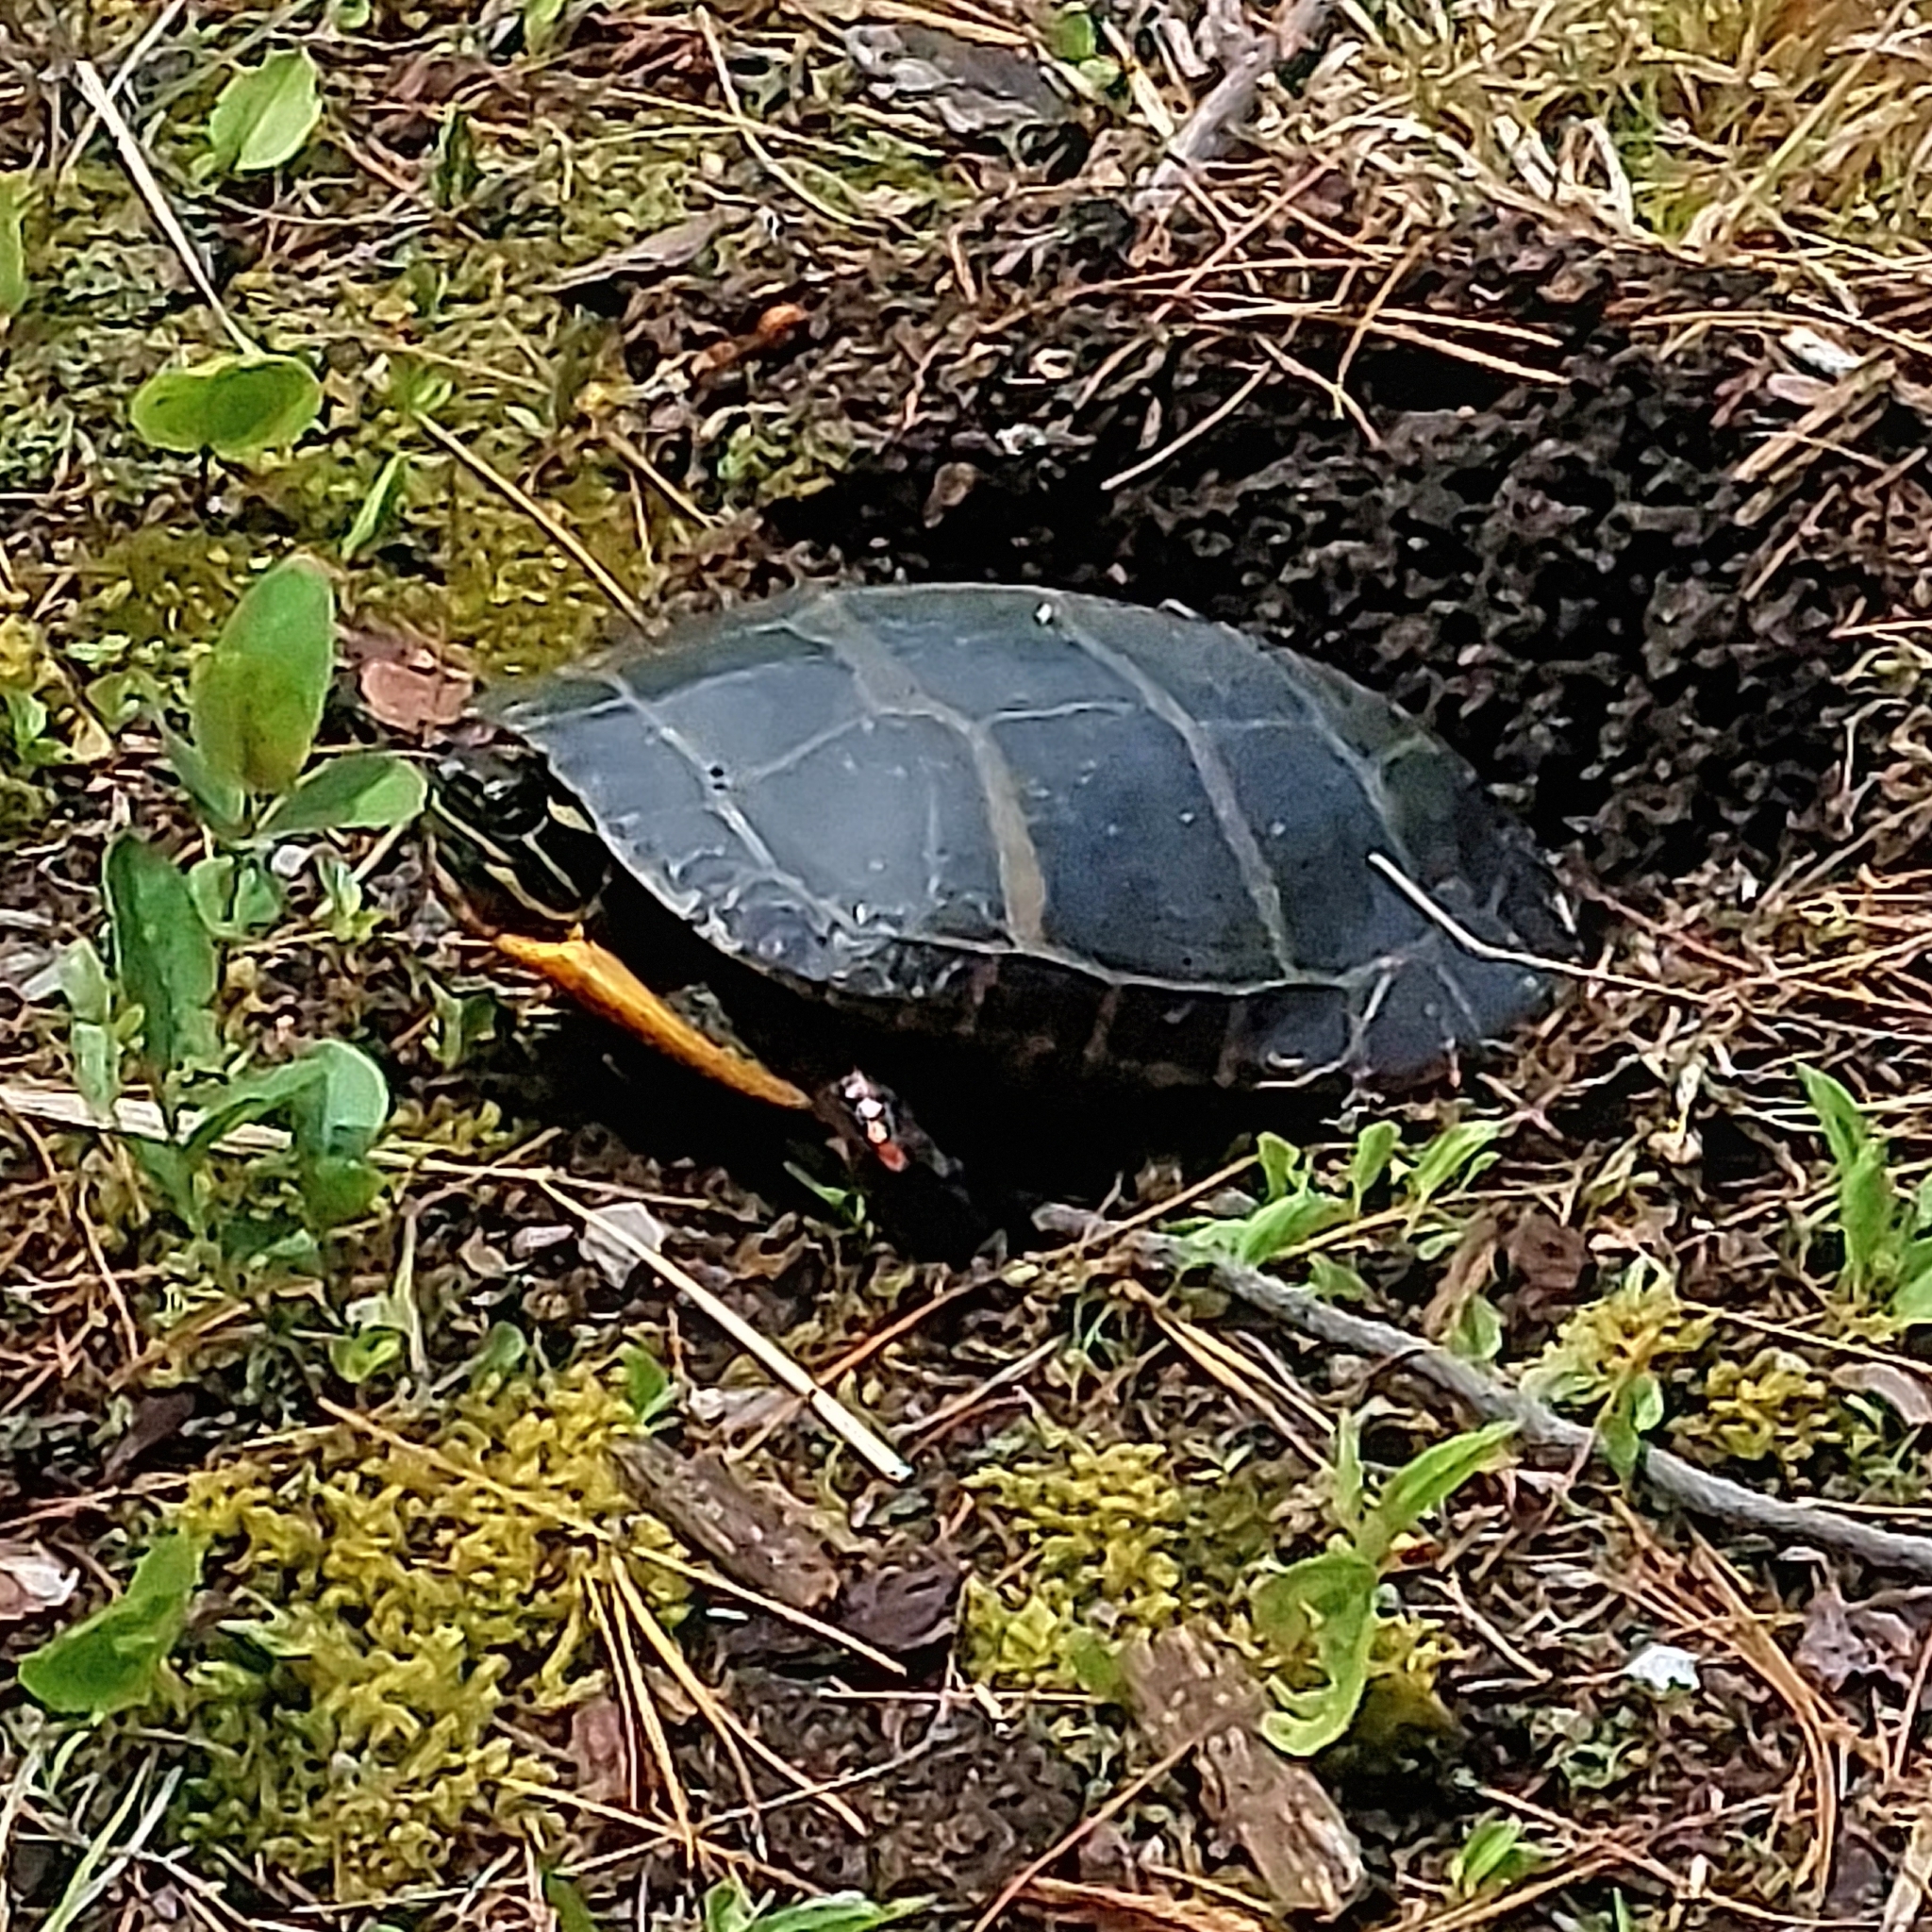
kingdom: Animalia
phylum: Chordata
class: Testudines
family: Emydidae
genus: Chrysemys
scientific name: Chrysemys picta
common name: Painted turtle
